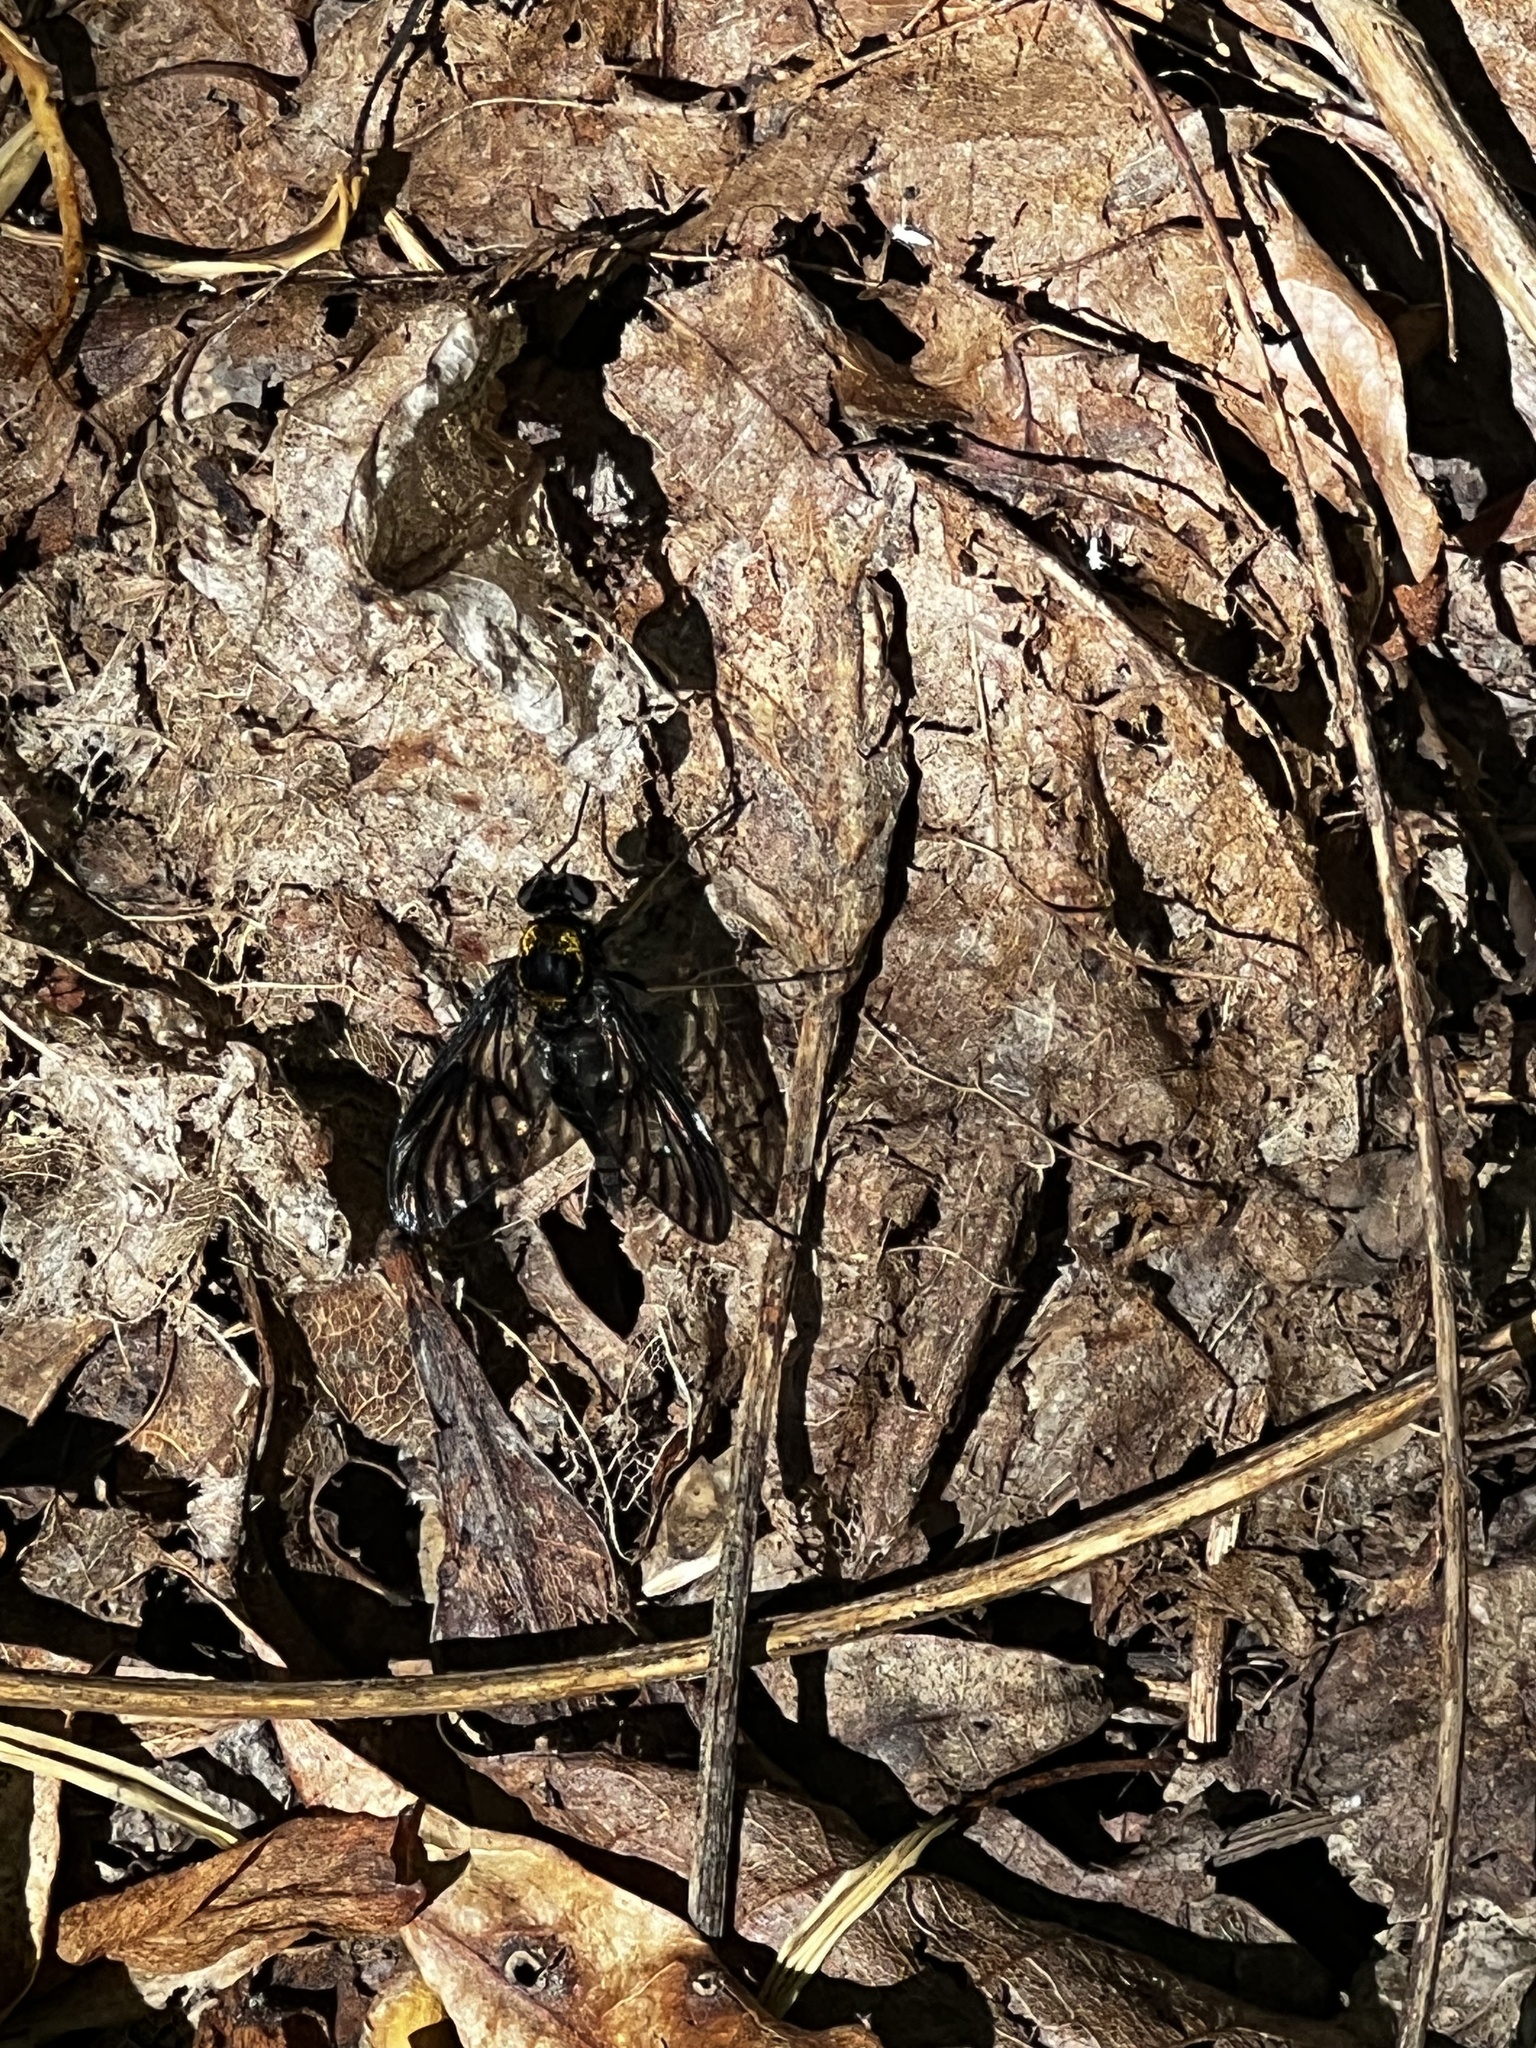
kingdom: Animalia
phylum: Arthropoda
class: Insecta
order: Diptera
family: Rhagionidae
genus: Chrysopilus
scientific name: Chrysopilus thoracicus
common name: Golden-backed snipe fly
